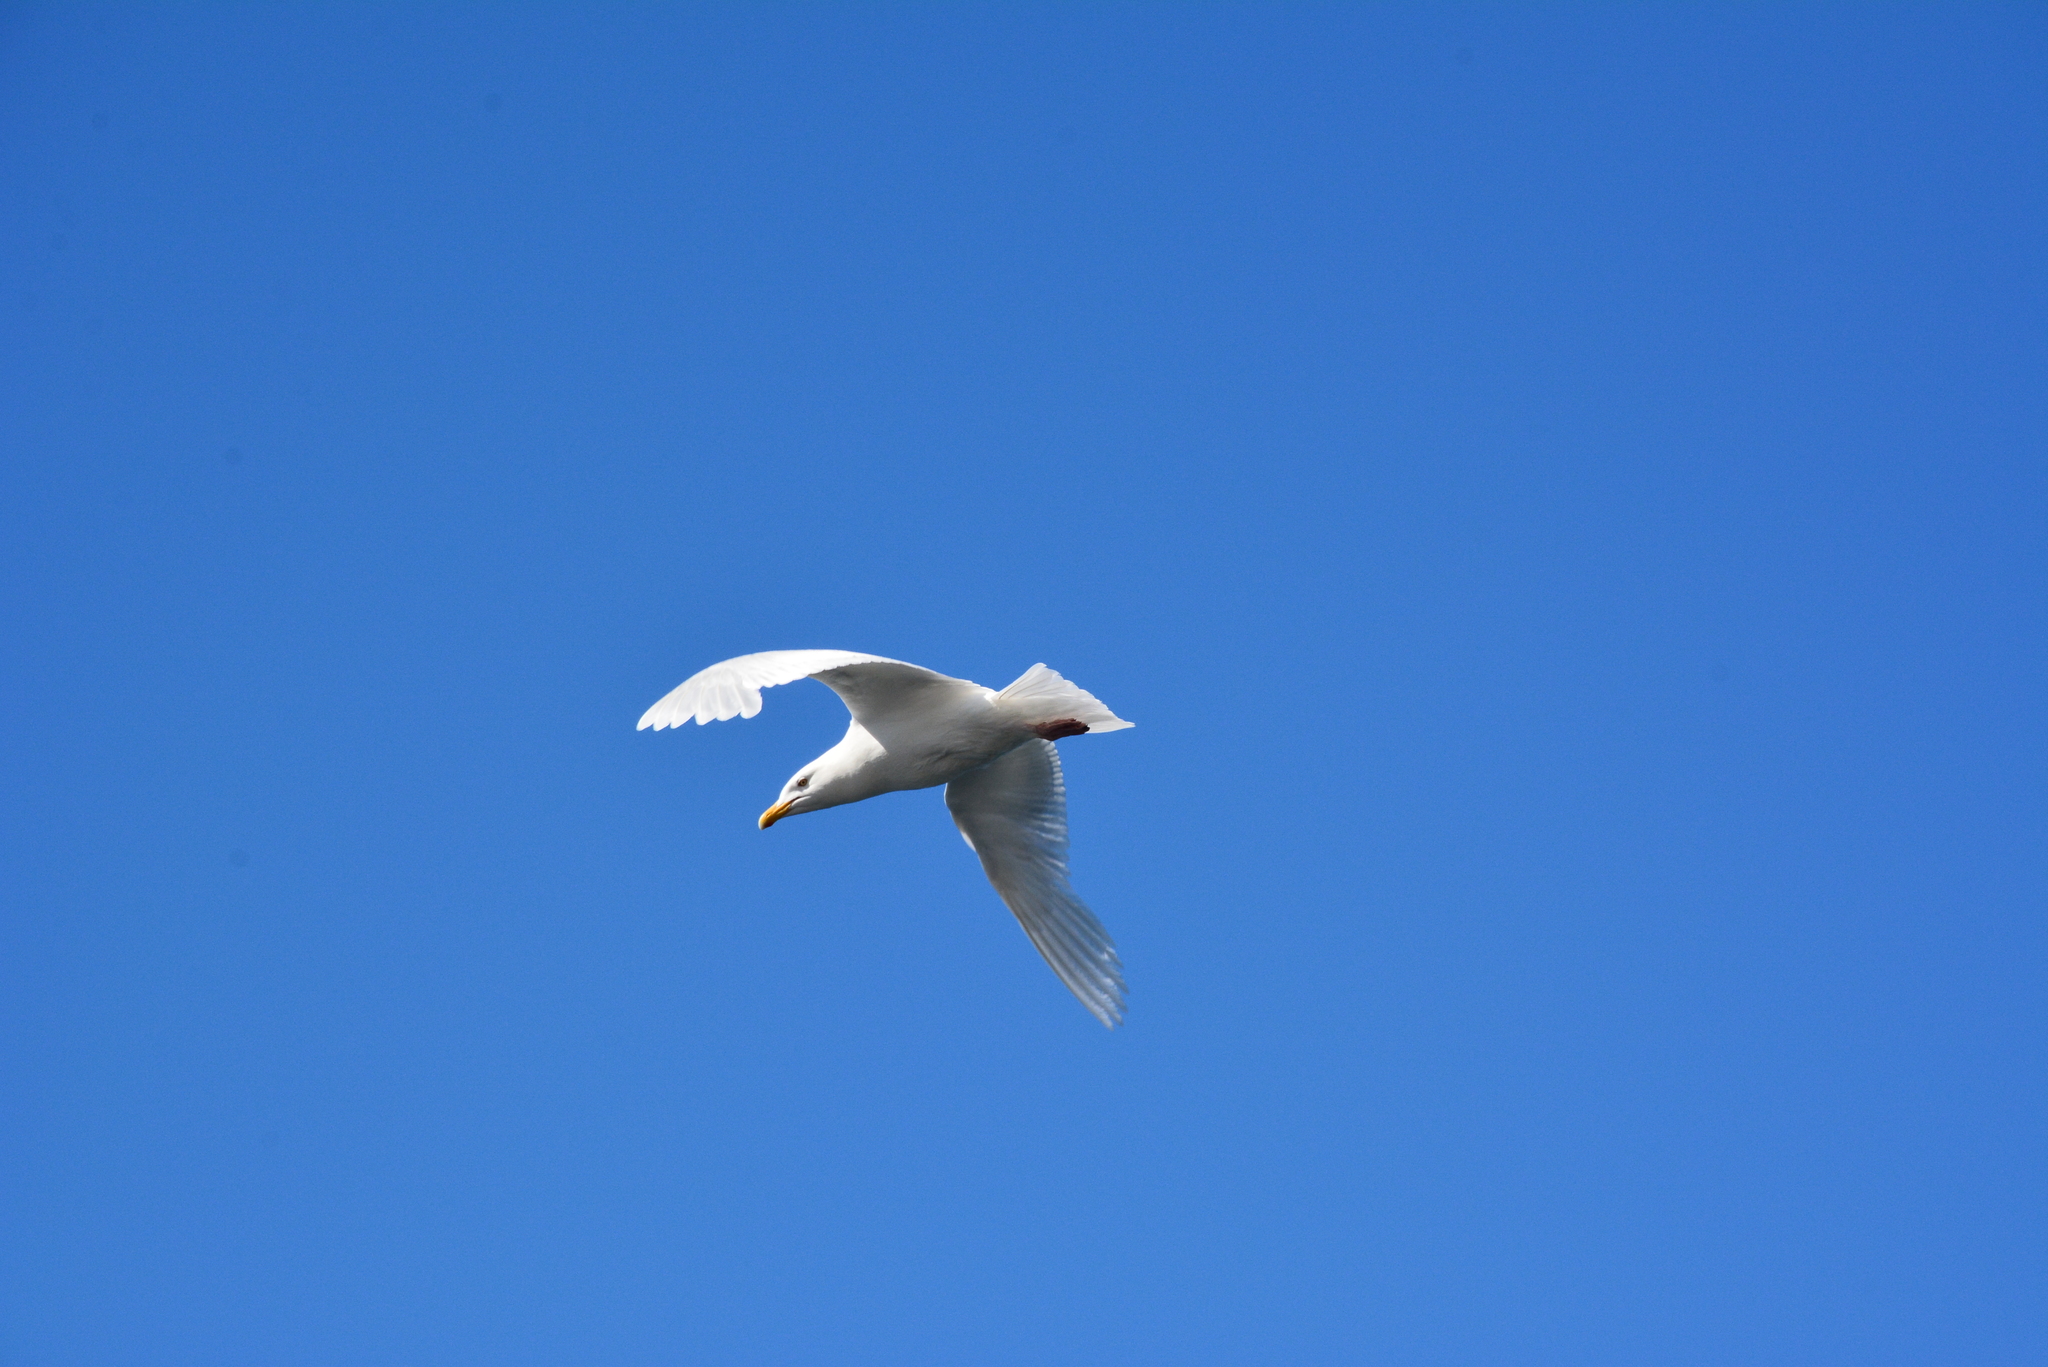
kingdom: Animalia
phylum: Chordata
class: Aves
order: Charadriiformes
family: Laridae
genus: Larus
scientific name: Larus hyperboreus
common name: Glaucous gull
